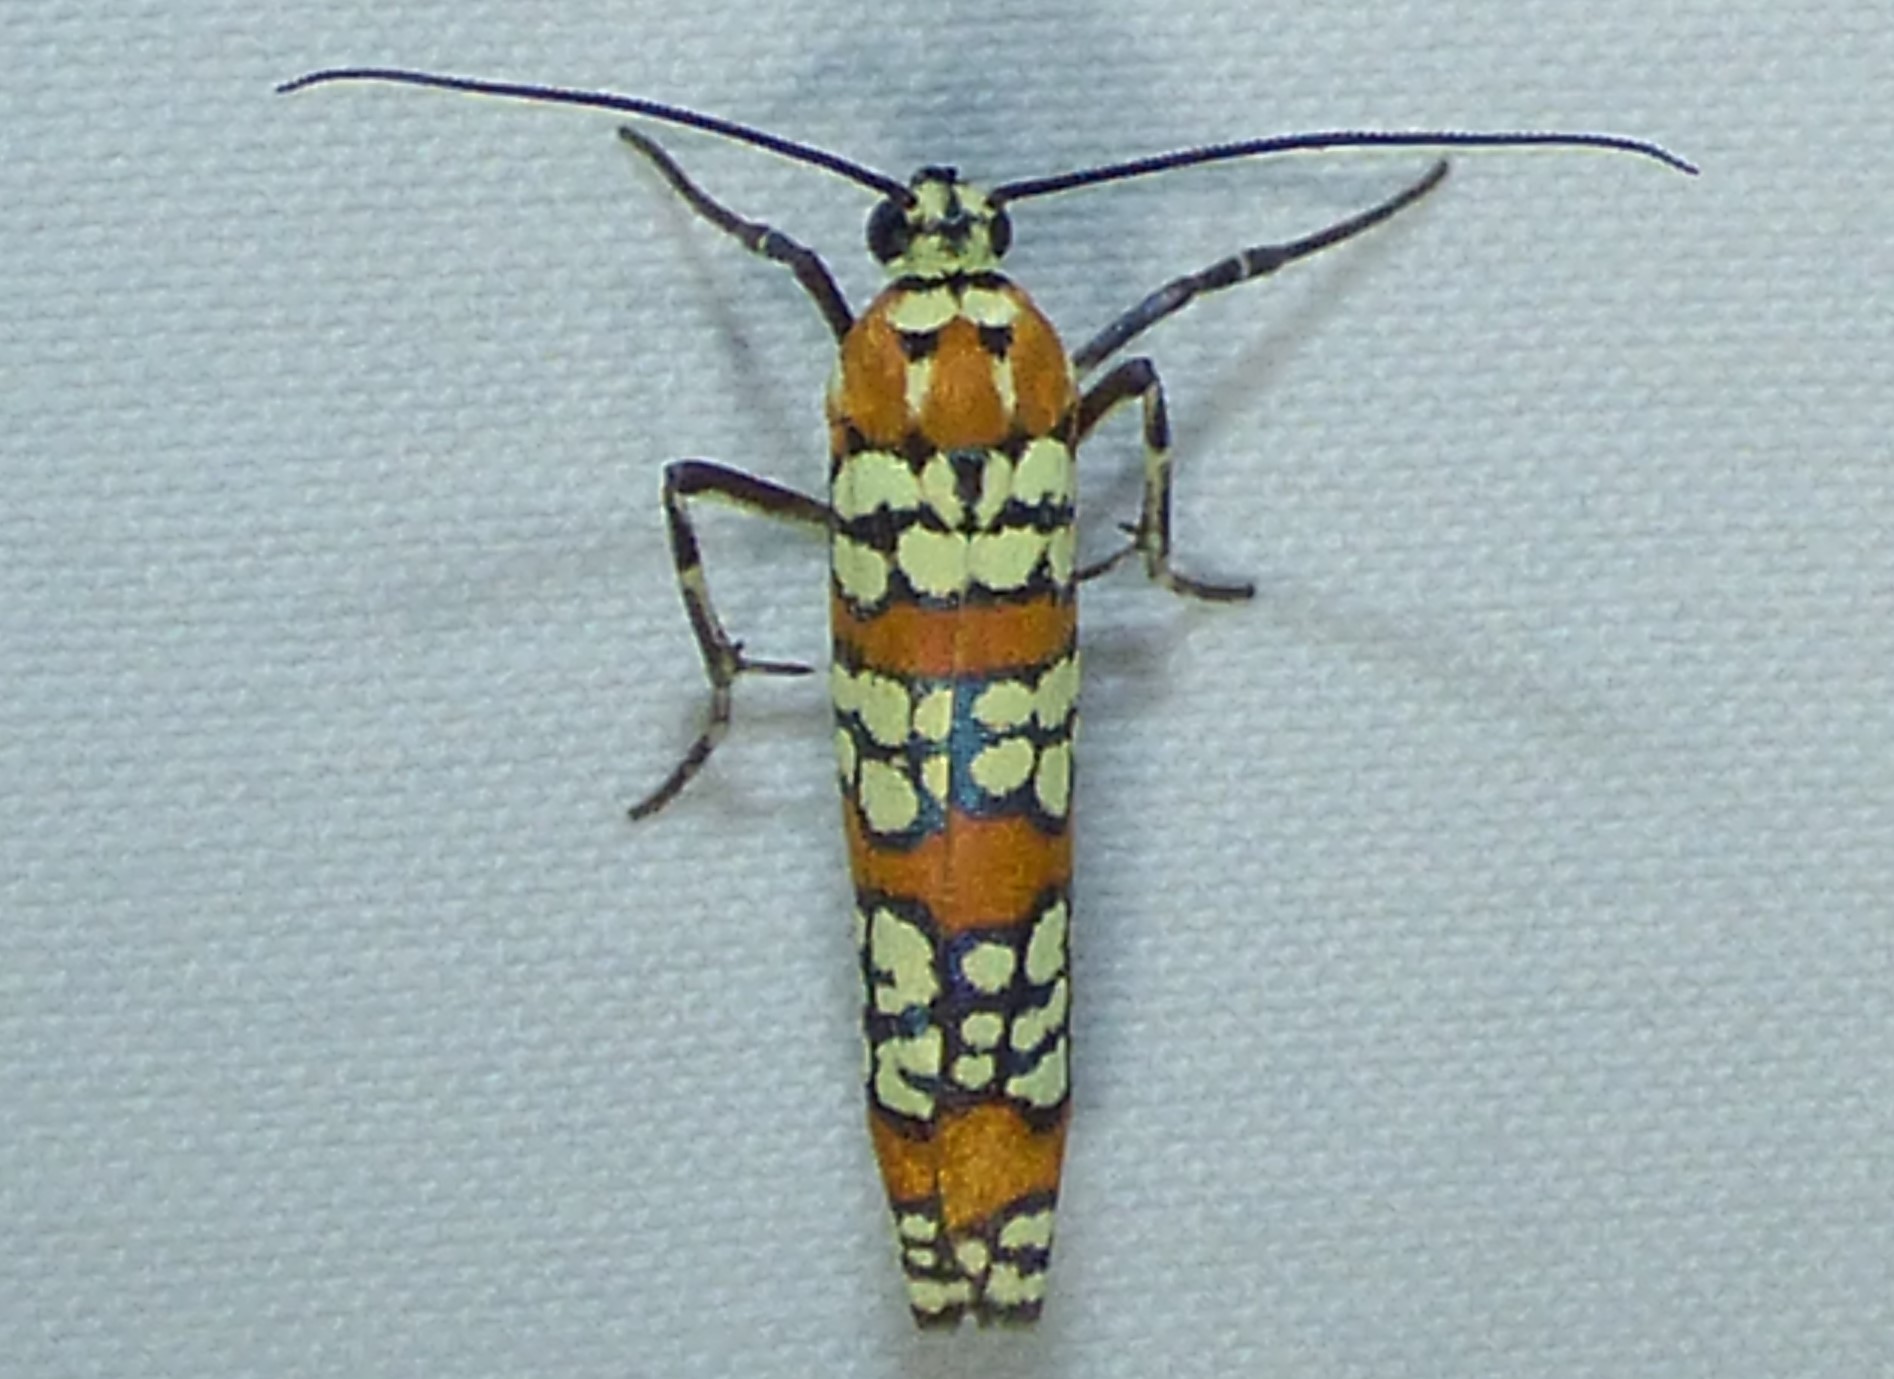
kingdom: Animalia
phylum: Arthropoda
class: Insecta
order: Lepidoptera
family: Attevidae
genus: Atteva
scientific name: Atteva punctella
